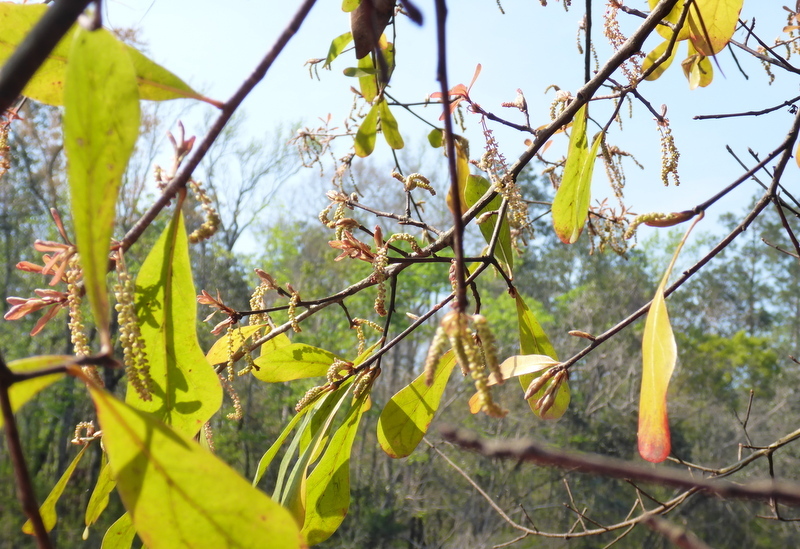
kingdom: Plantae
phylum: Tracheophyta
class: Magnoliopsida
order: Fagales
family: Fagaceae
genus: Quercus
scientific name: Quercus nigra
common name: Water oak
